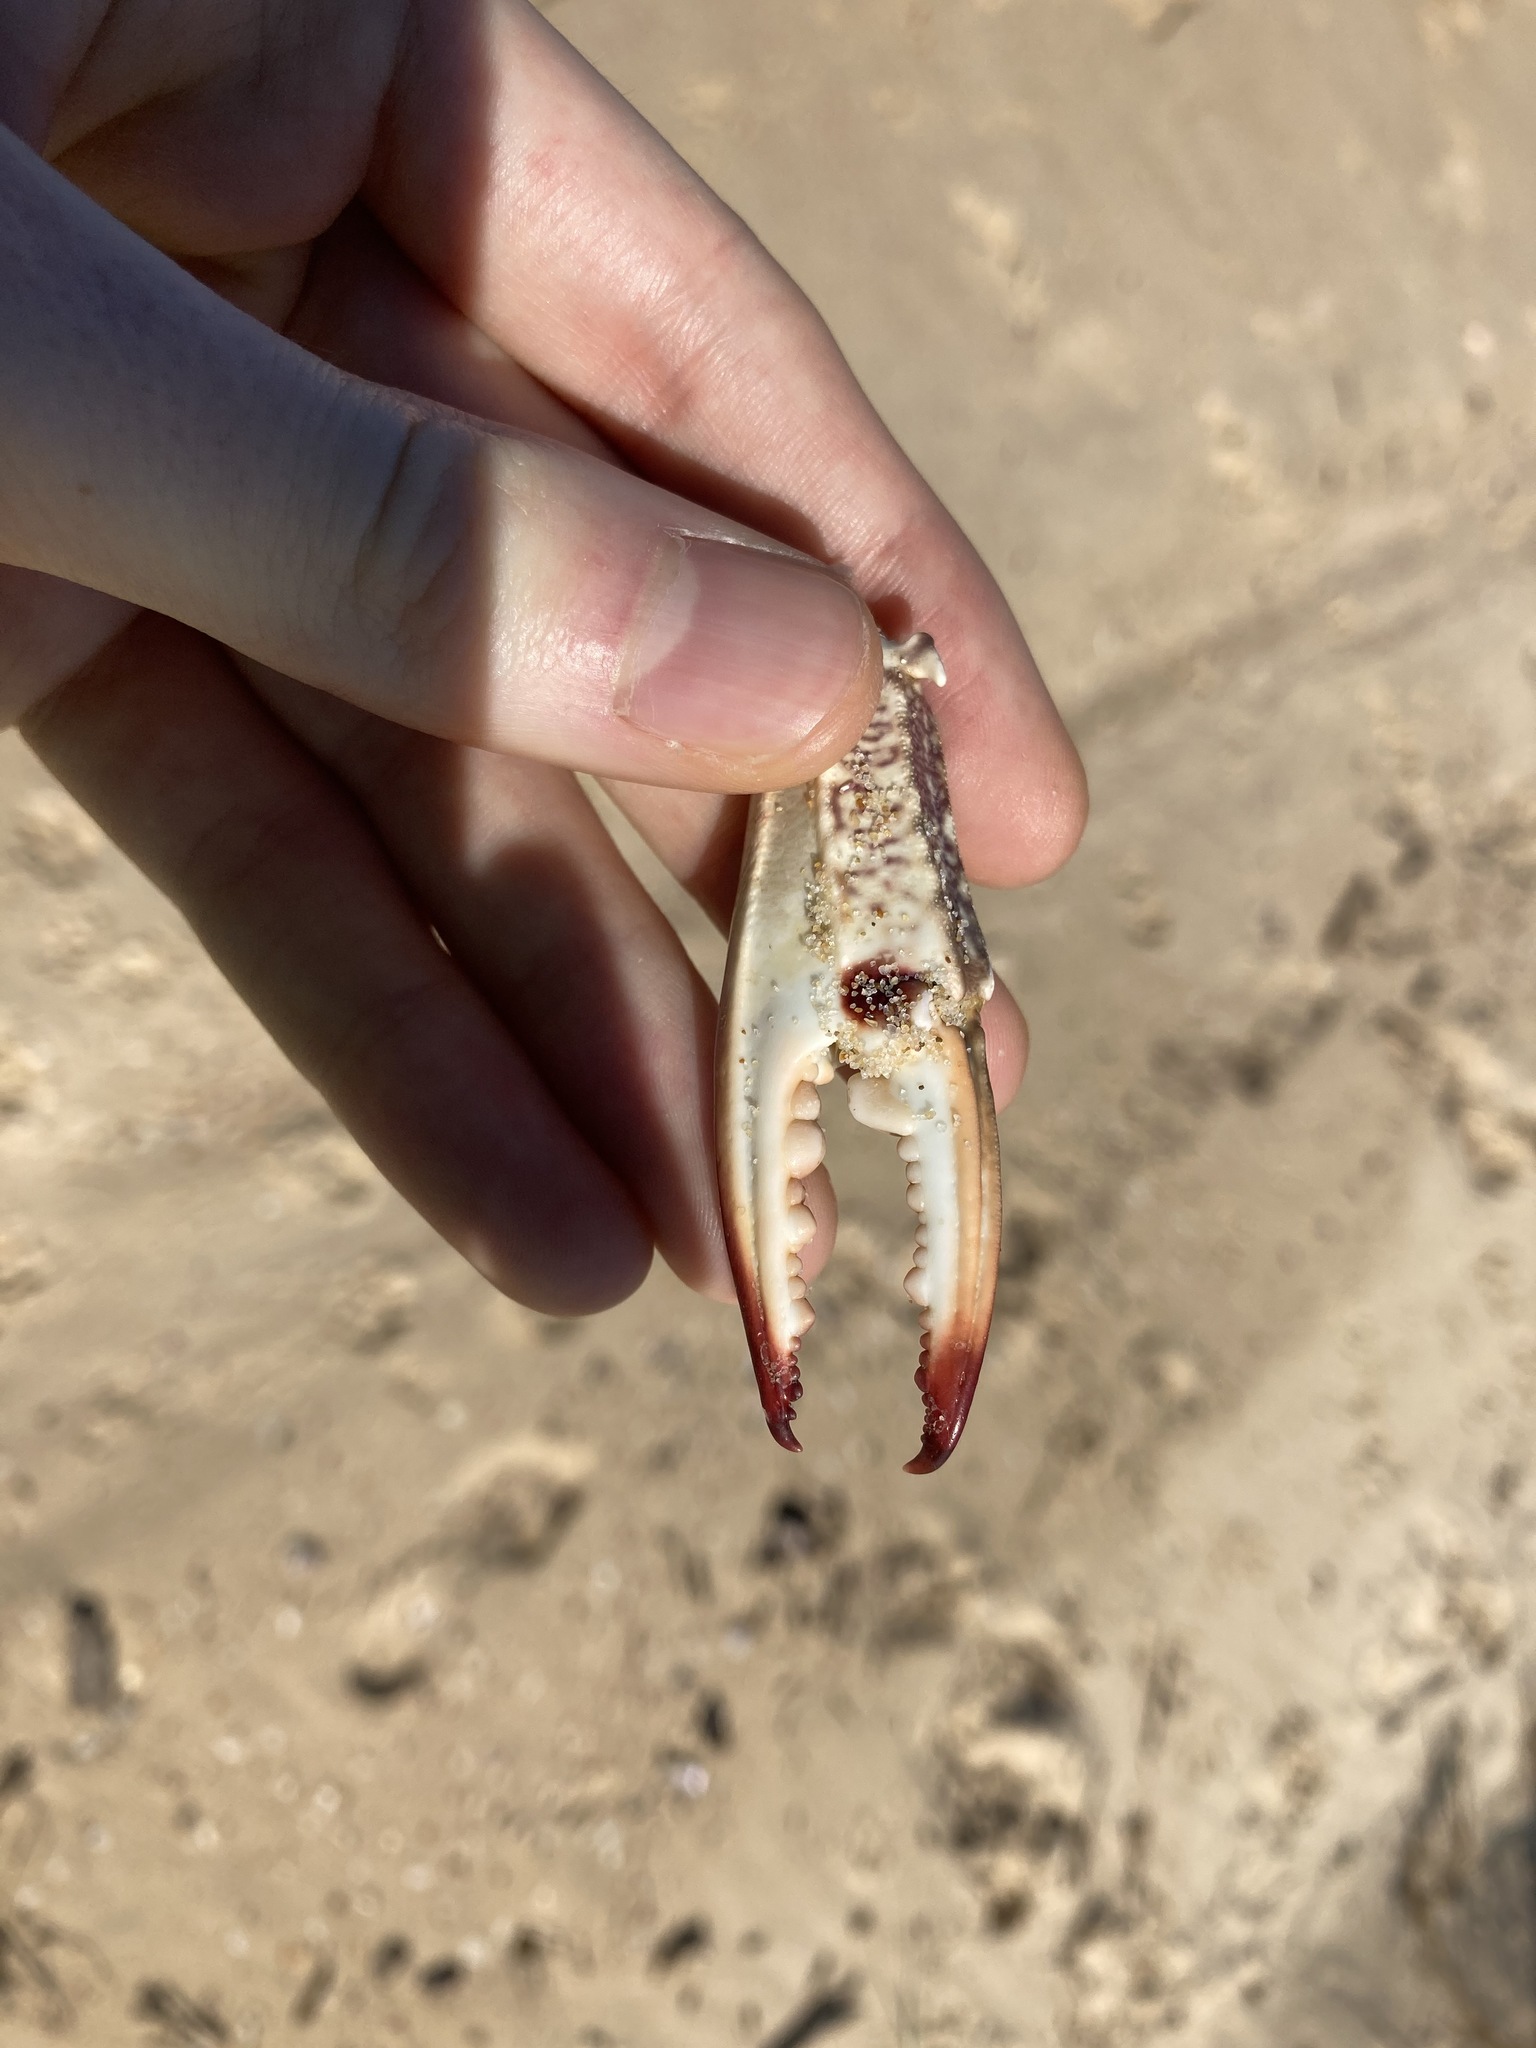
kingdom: Animalia
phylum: Arthropoda
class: Malacostraca
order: Decapoda
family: Portunidae
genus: Portunus
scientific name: Portunus armatus
